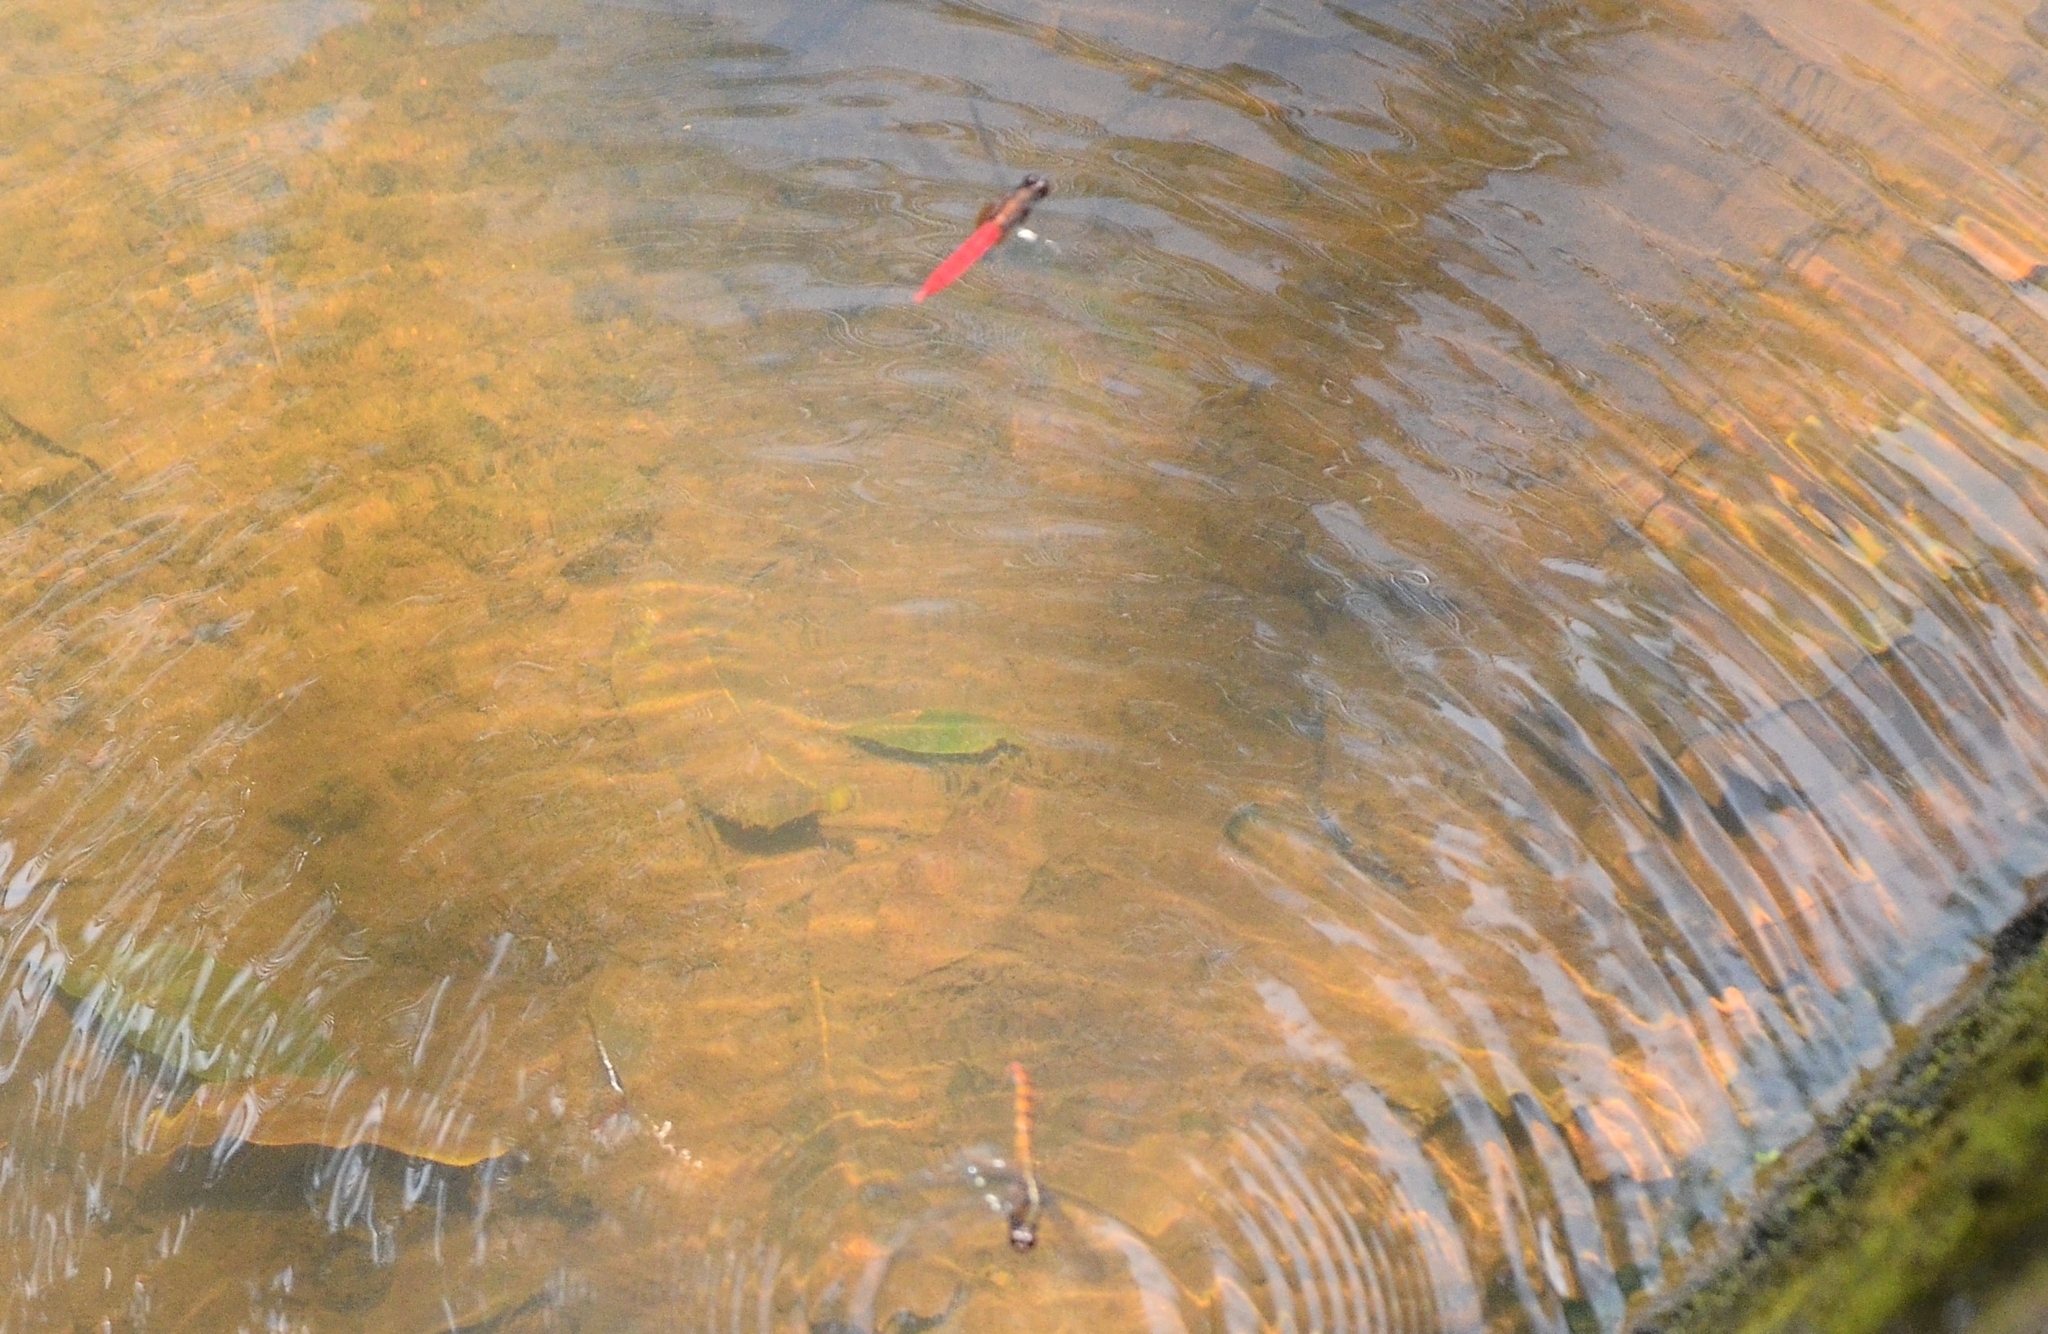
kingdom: Animalia
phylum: Arthropoda
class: Insecta
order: Odonata
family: Libellulidae
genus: Orthetrum
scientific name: Orthetrum chrysis
